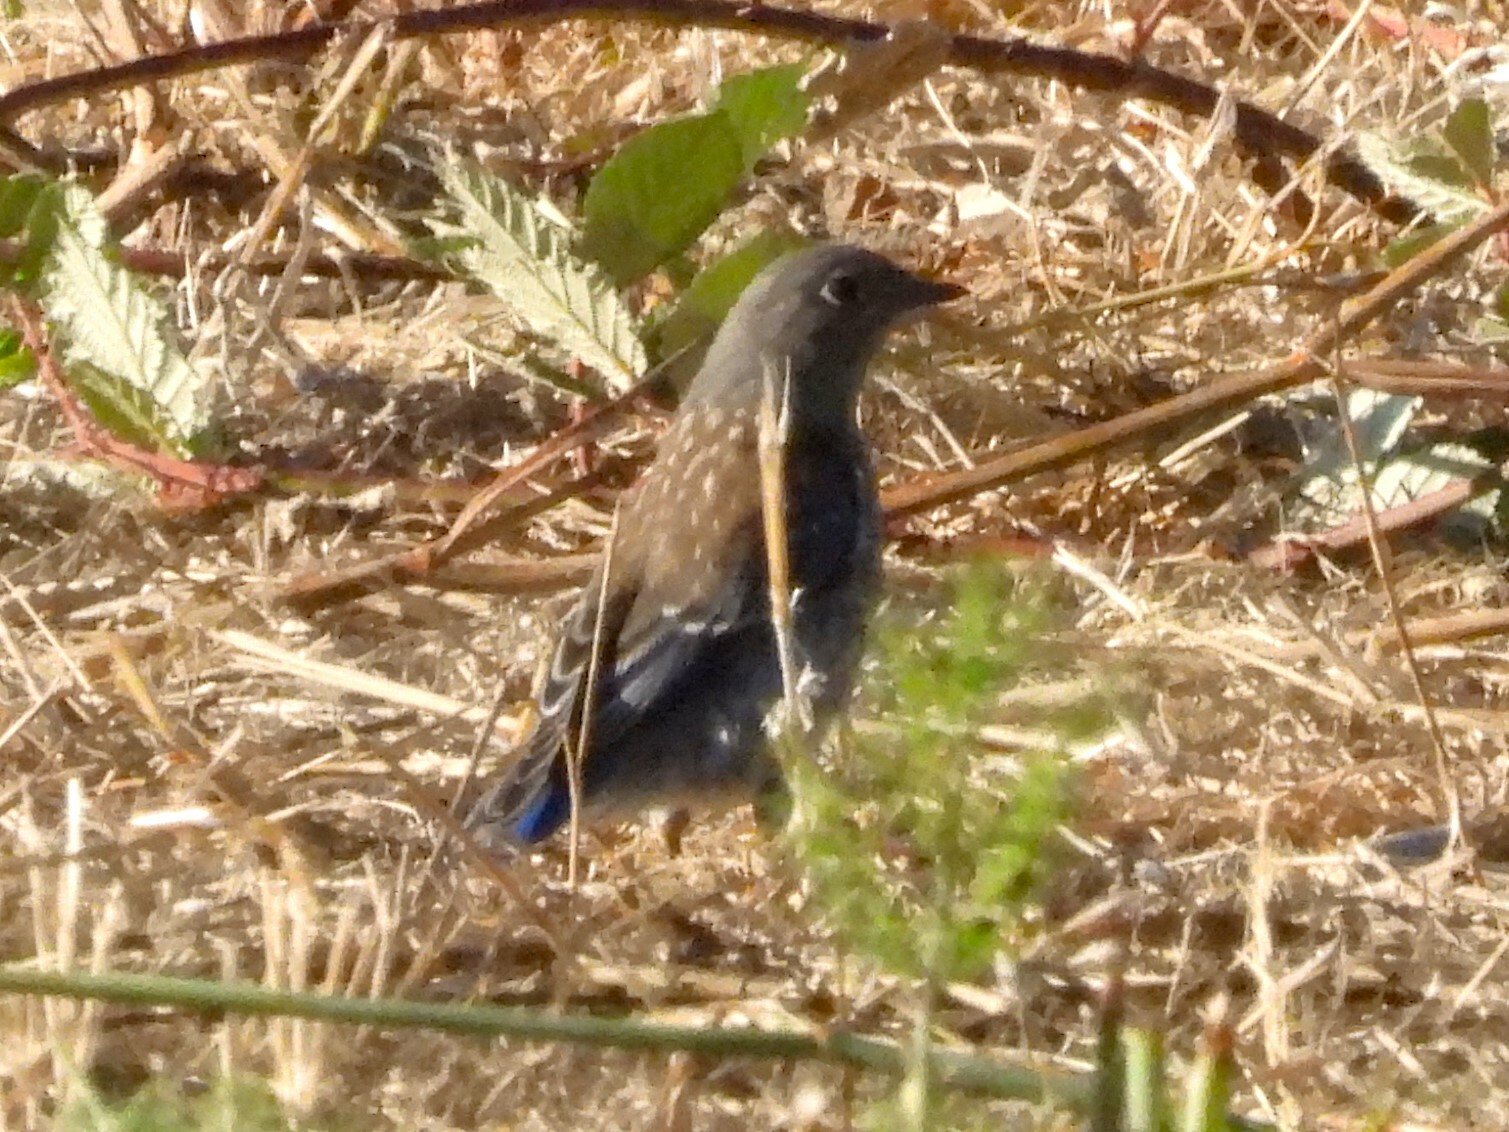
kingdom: Animalia
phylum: Chordata
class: Aves
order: Passeriformes
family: Turdidae
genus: Sialia
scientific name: Sialia mexicana
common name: Western bluebird
